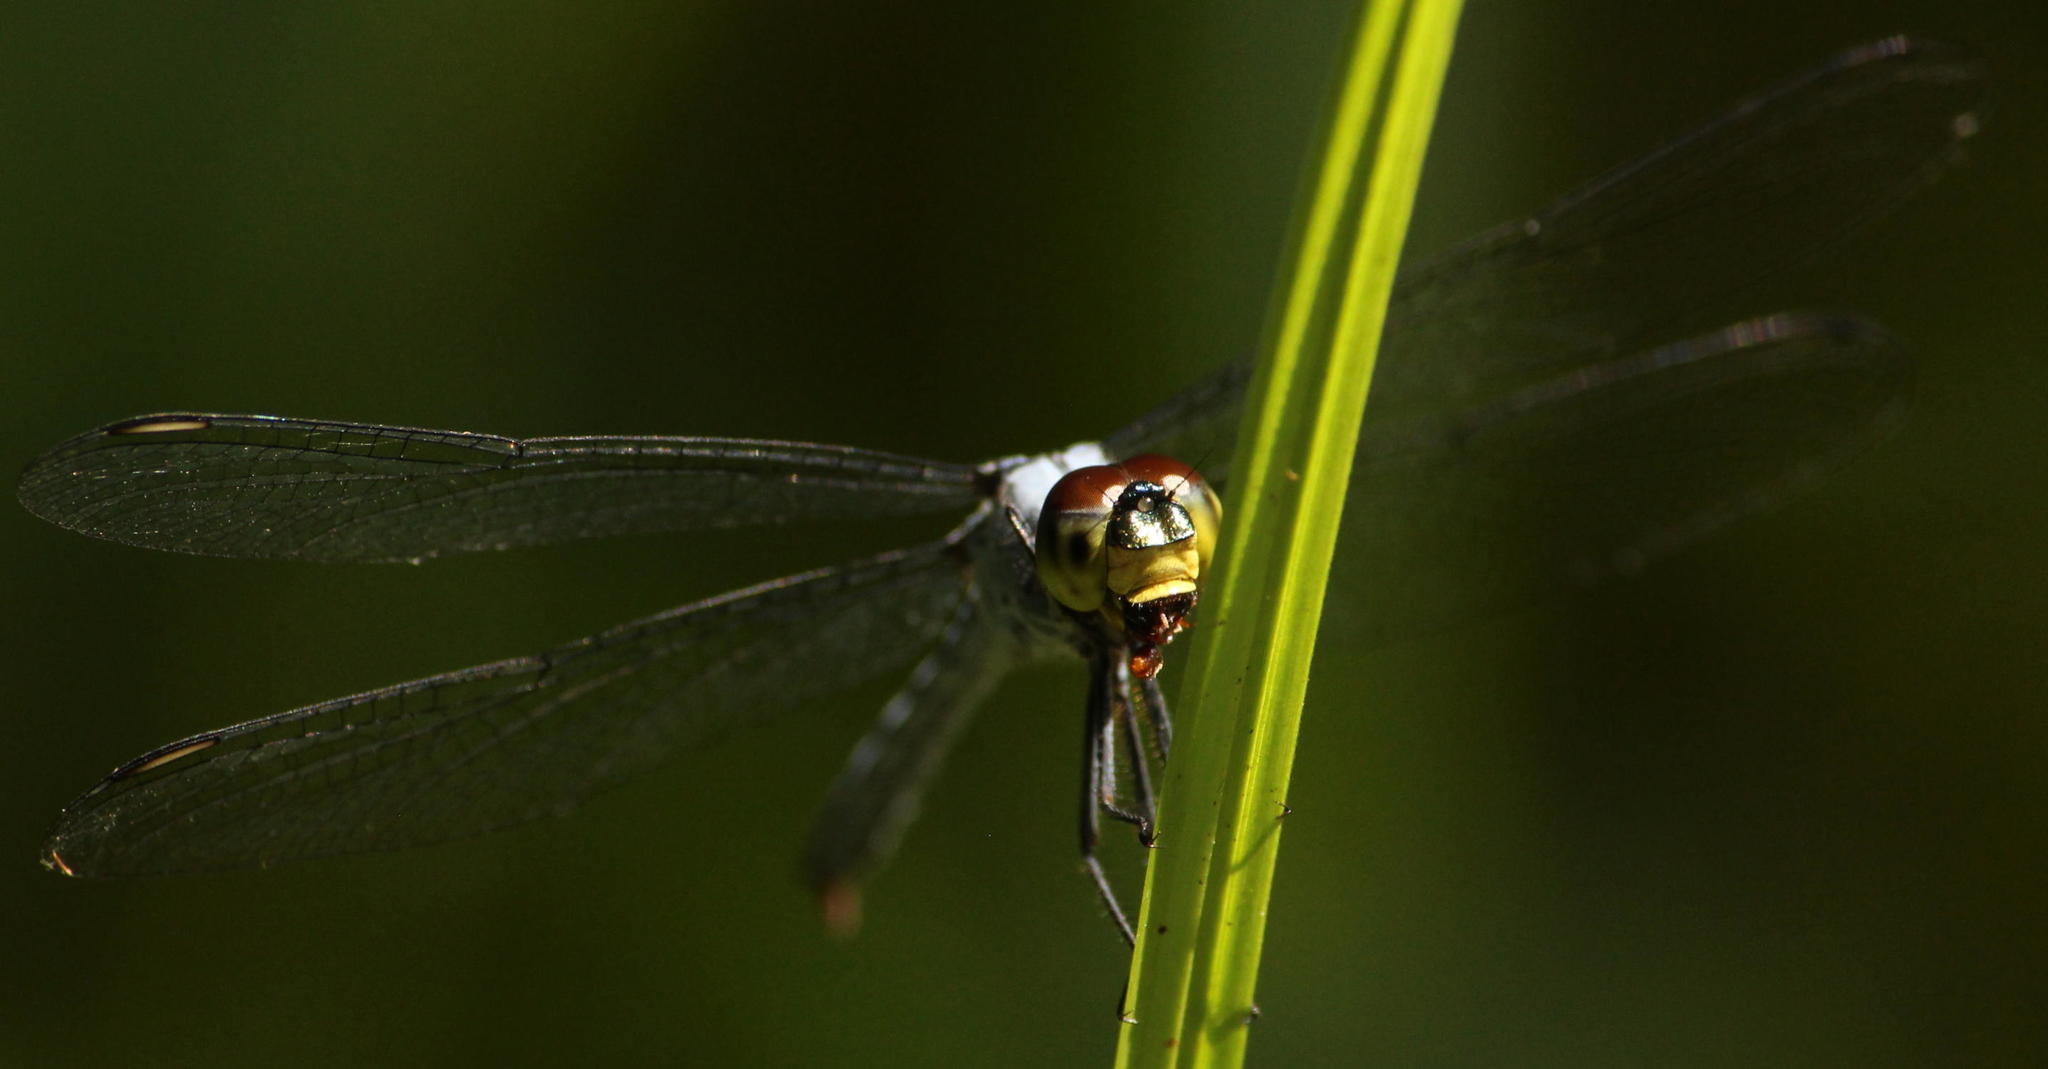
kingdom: Animalia
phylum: Arthropoda
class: Insecta
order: Odonata
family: Libellulidae
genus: Chalcostephia
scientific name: Chalcostephia flavifrons
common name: Inspector
